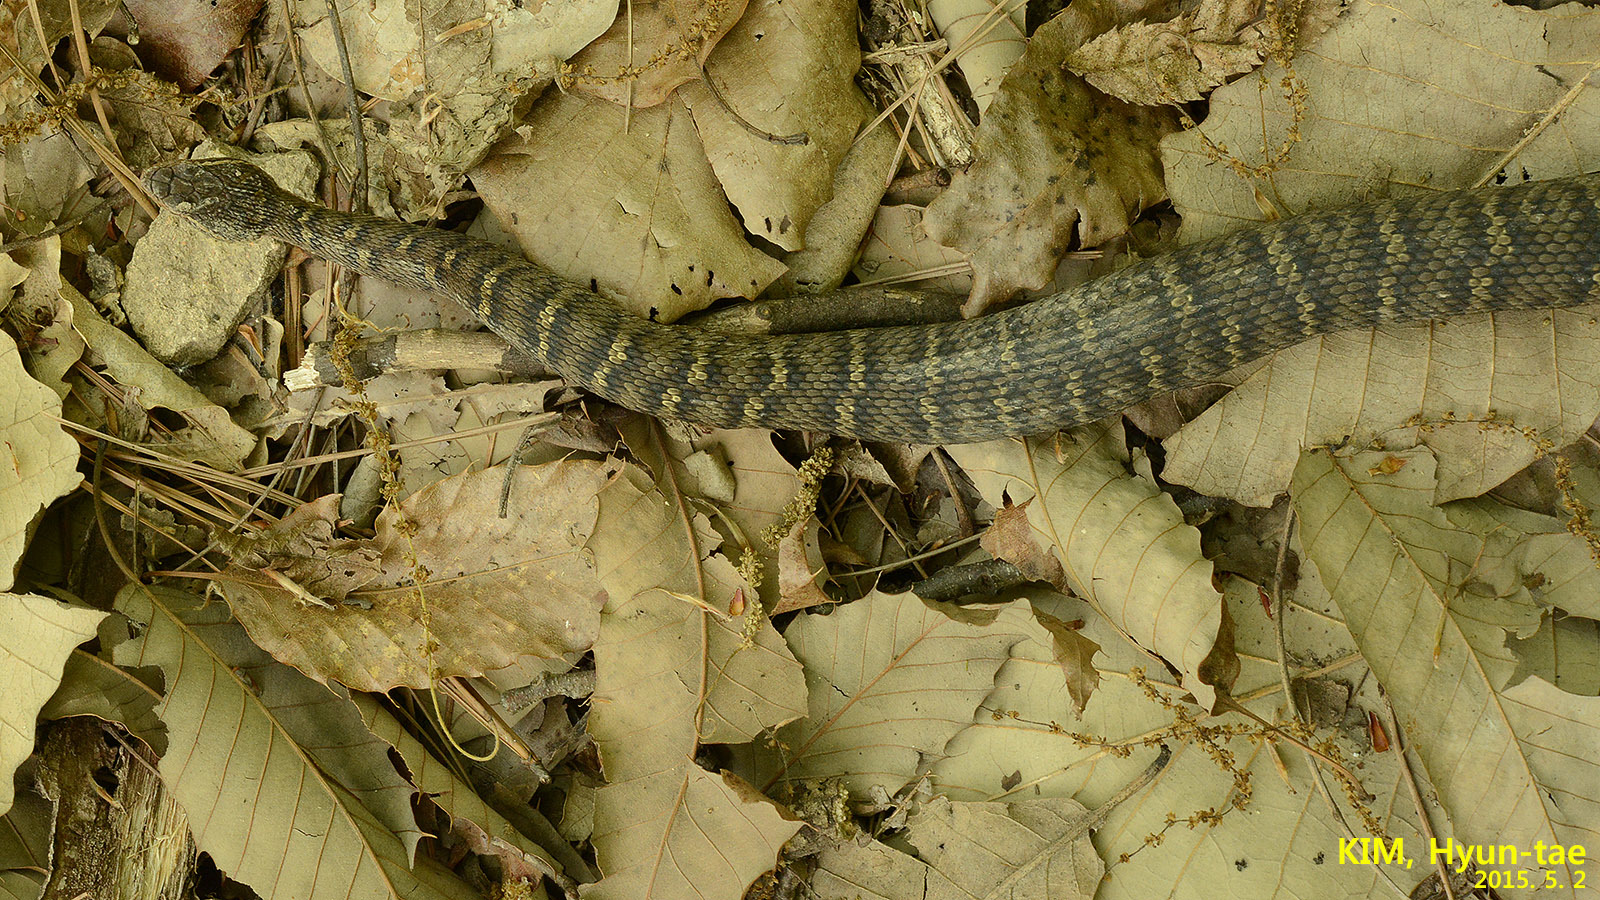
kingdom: Animalia
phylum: Chordata
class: Squamata
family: Viperidae
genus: Gloydius
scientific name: Gloydius ussuriensis
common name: Ussuri mamushi
